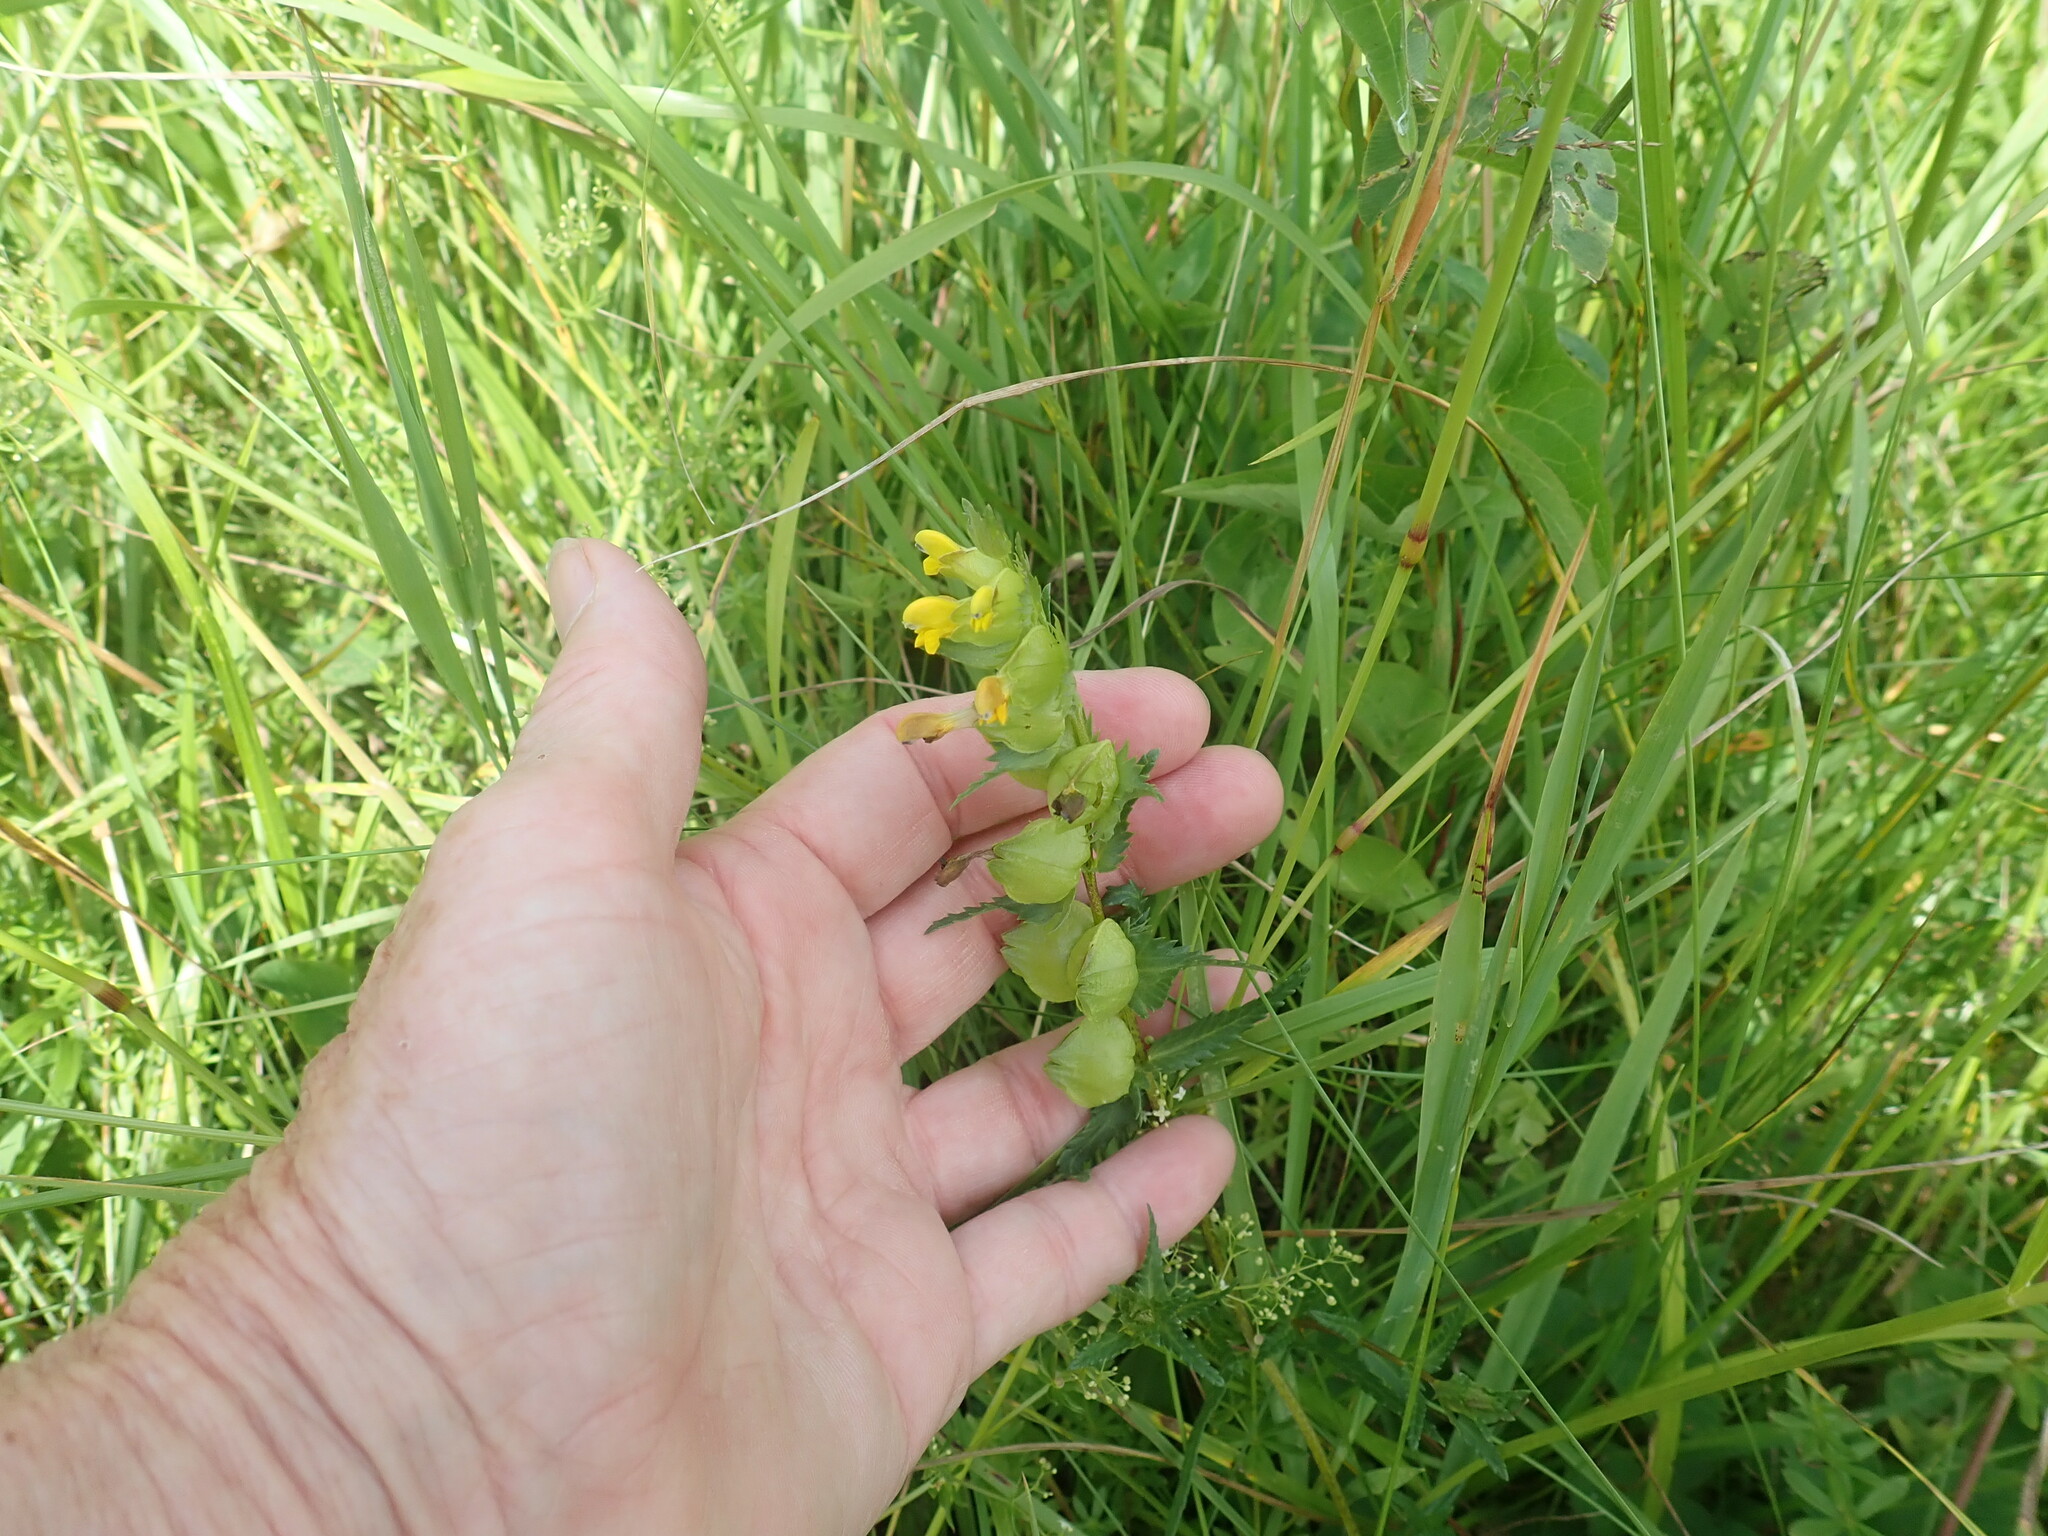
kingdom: Plantae
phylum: Tracheophyta
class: Magnoliopsida
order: Lamiales
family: Orobanchaceae
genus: Rhinanthus
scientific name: Rhinanthus minor
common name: Yellow-rattle
